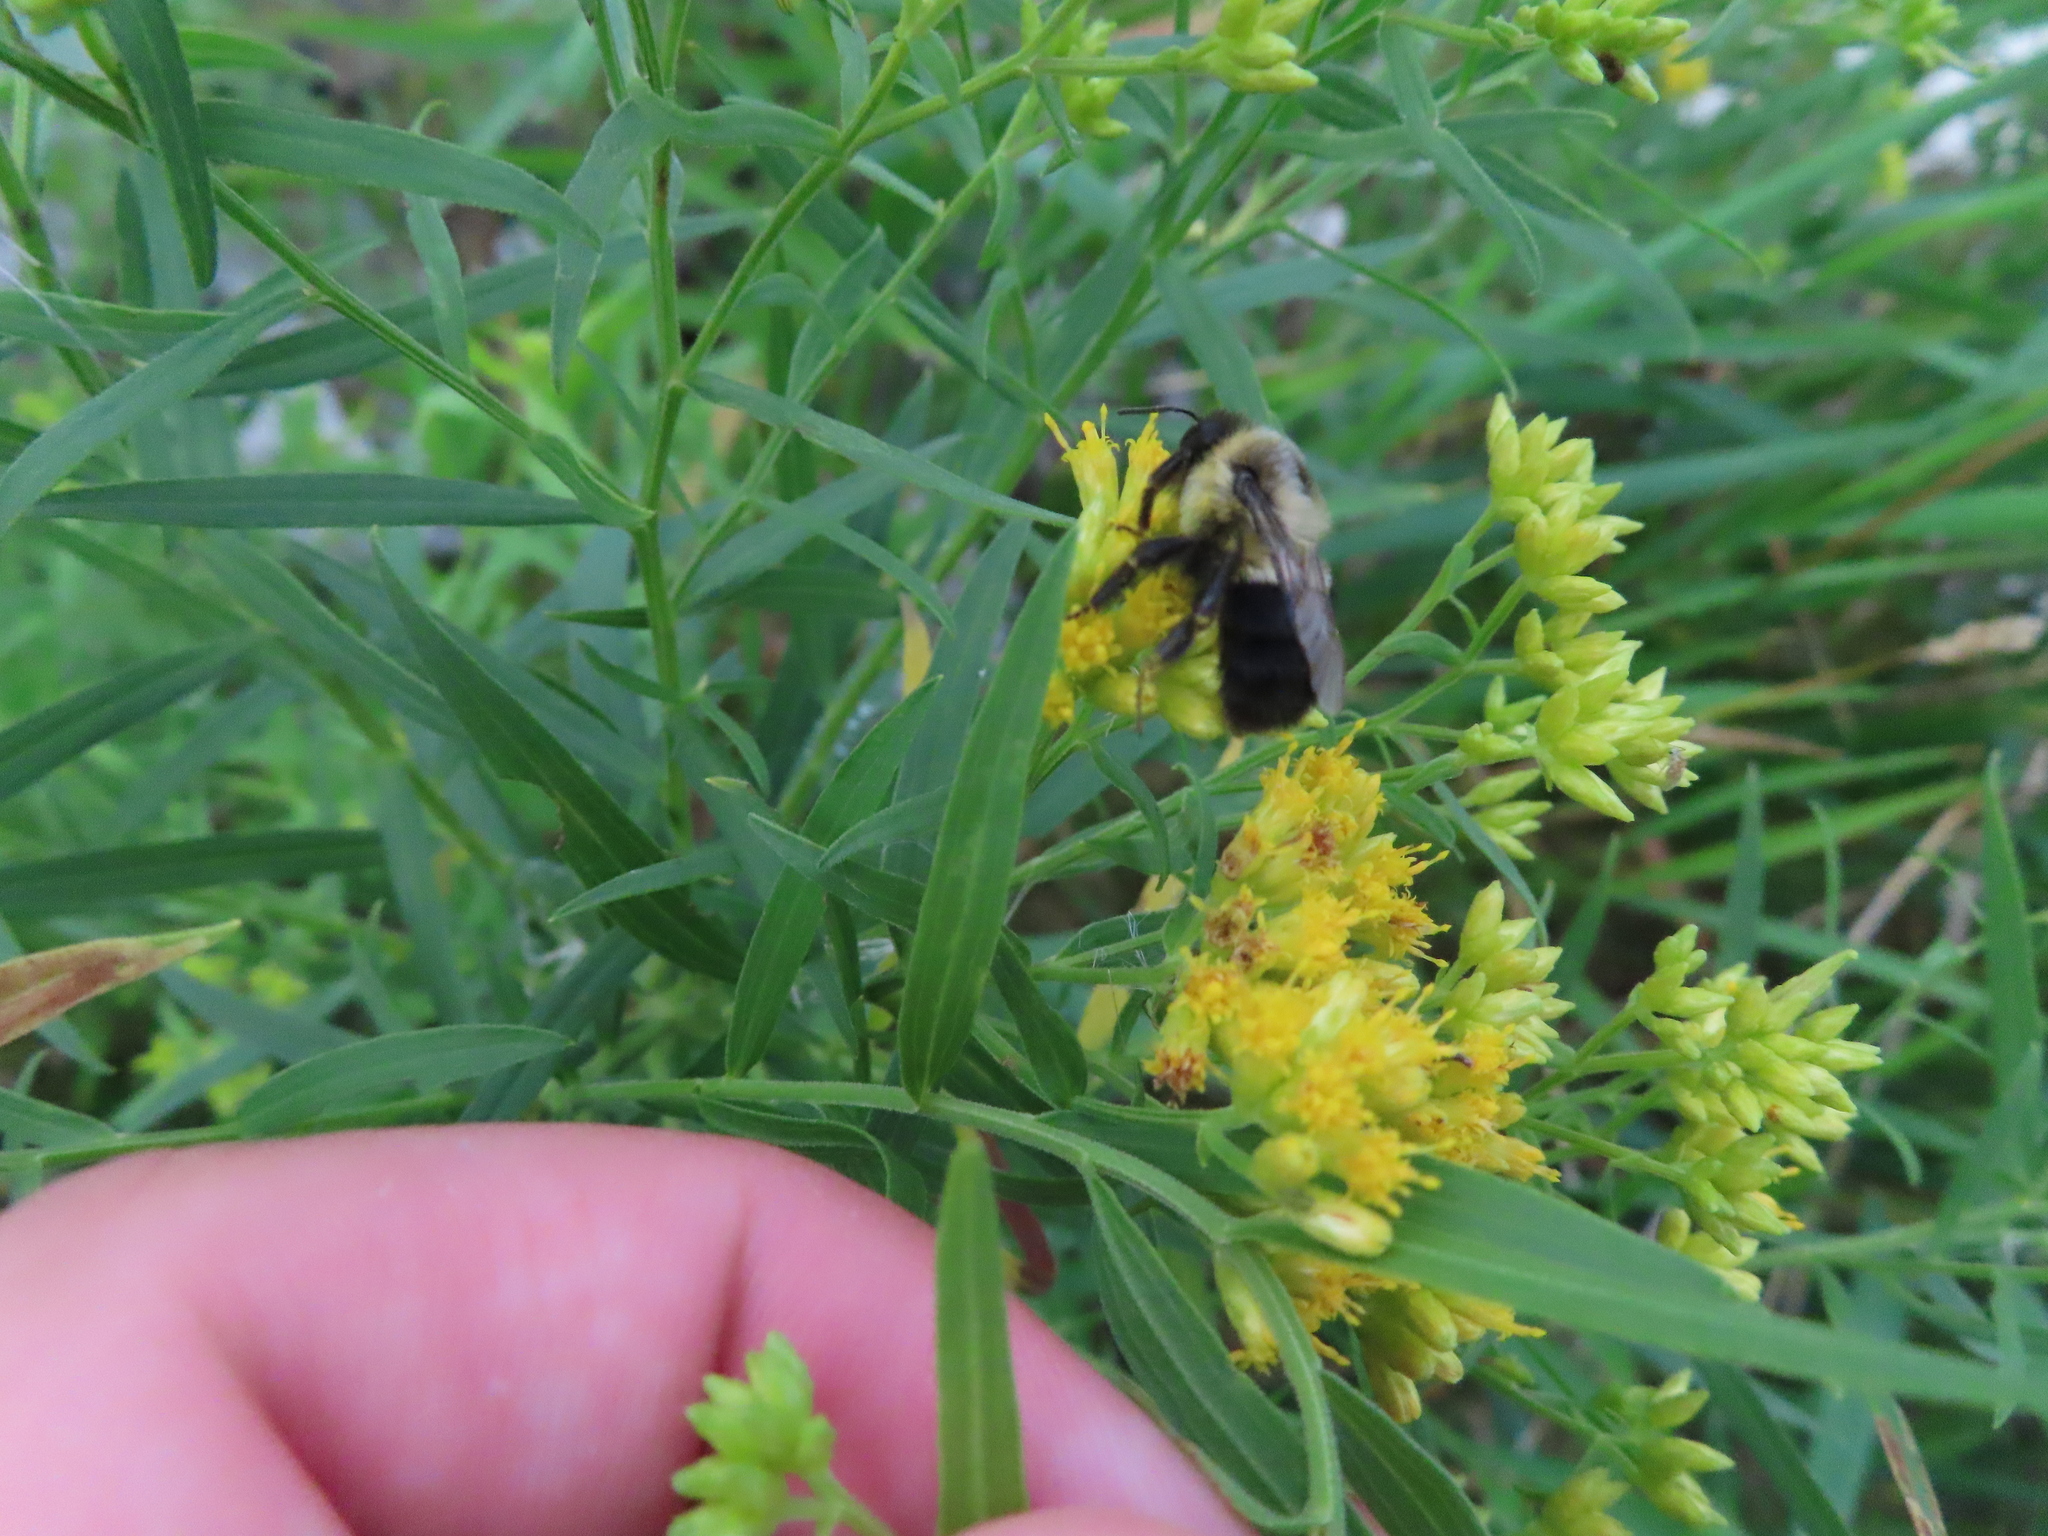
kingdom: Animalia
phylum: Arthropoda
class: Insecta
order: Hymenoptera
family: Apidae
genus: Bombus
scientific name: Bombus impatiens
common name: Common eastern bumble bee
